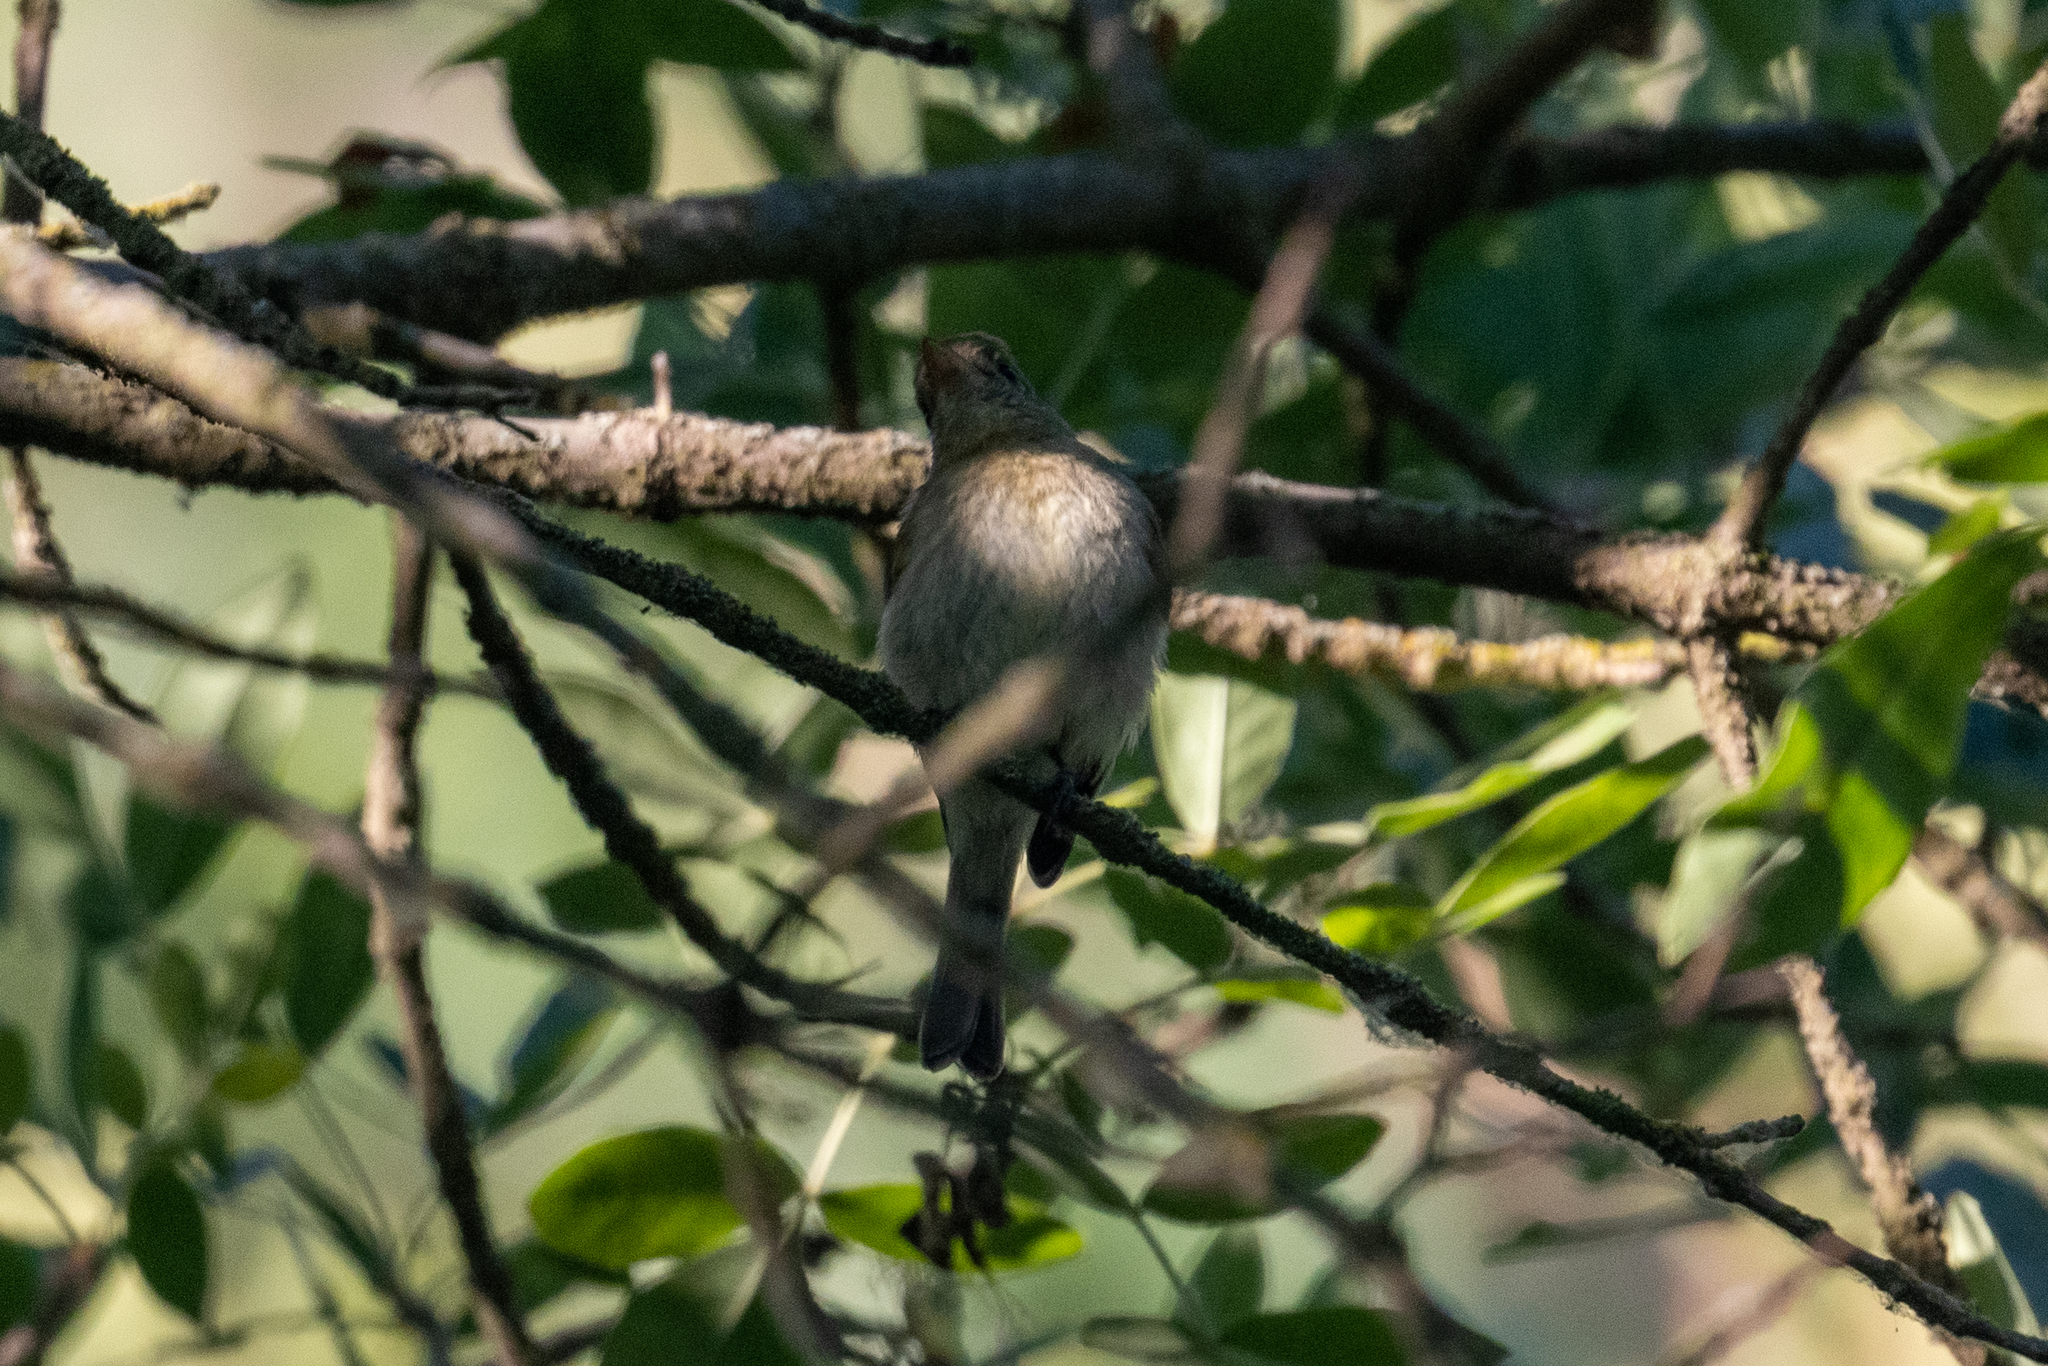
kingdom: Animalia
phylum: Chordata
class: Aves
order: Passeriformes
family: Tyrannidae
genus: Empidonax
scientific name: Empidonax difficilis
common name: Pacific-slope flycatcher
